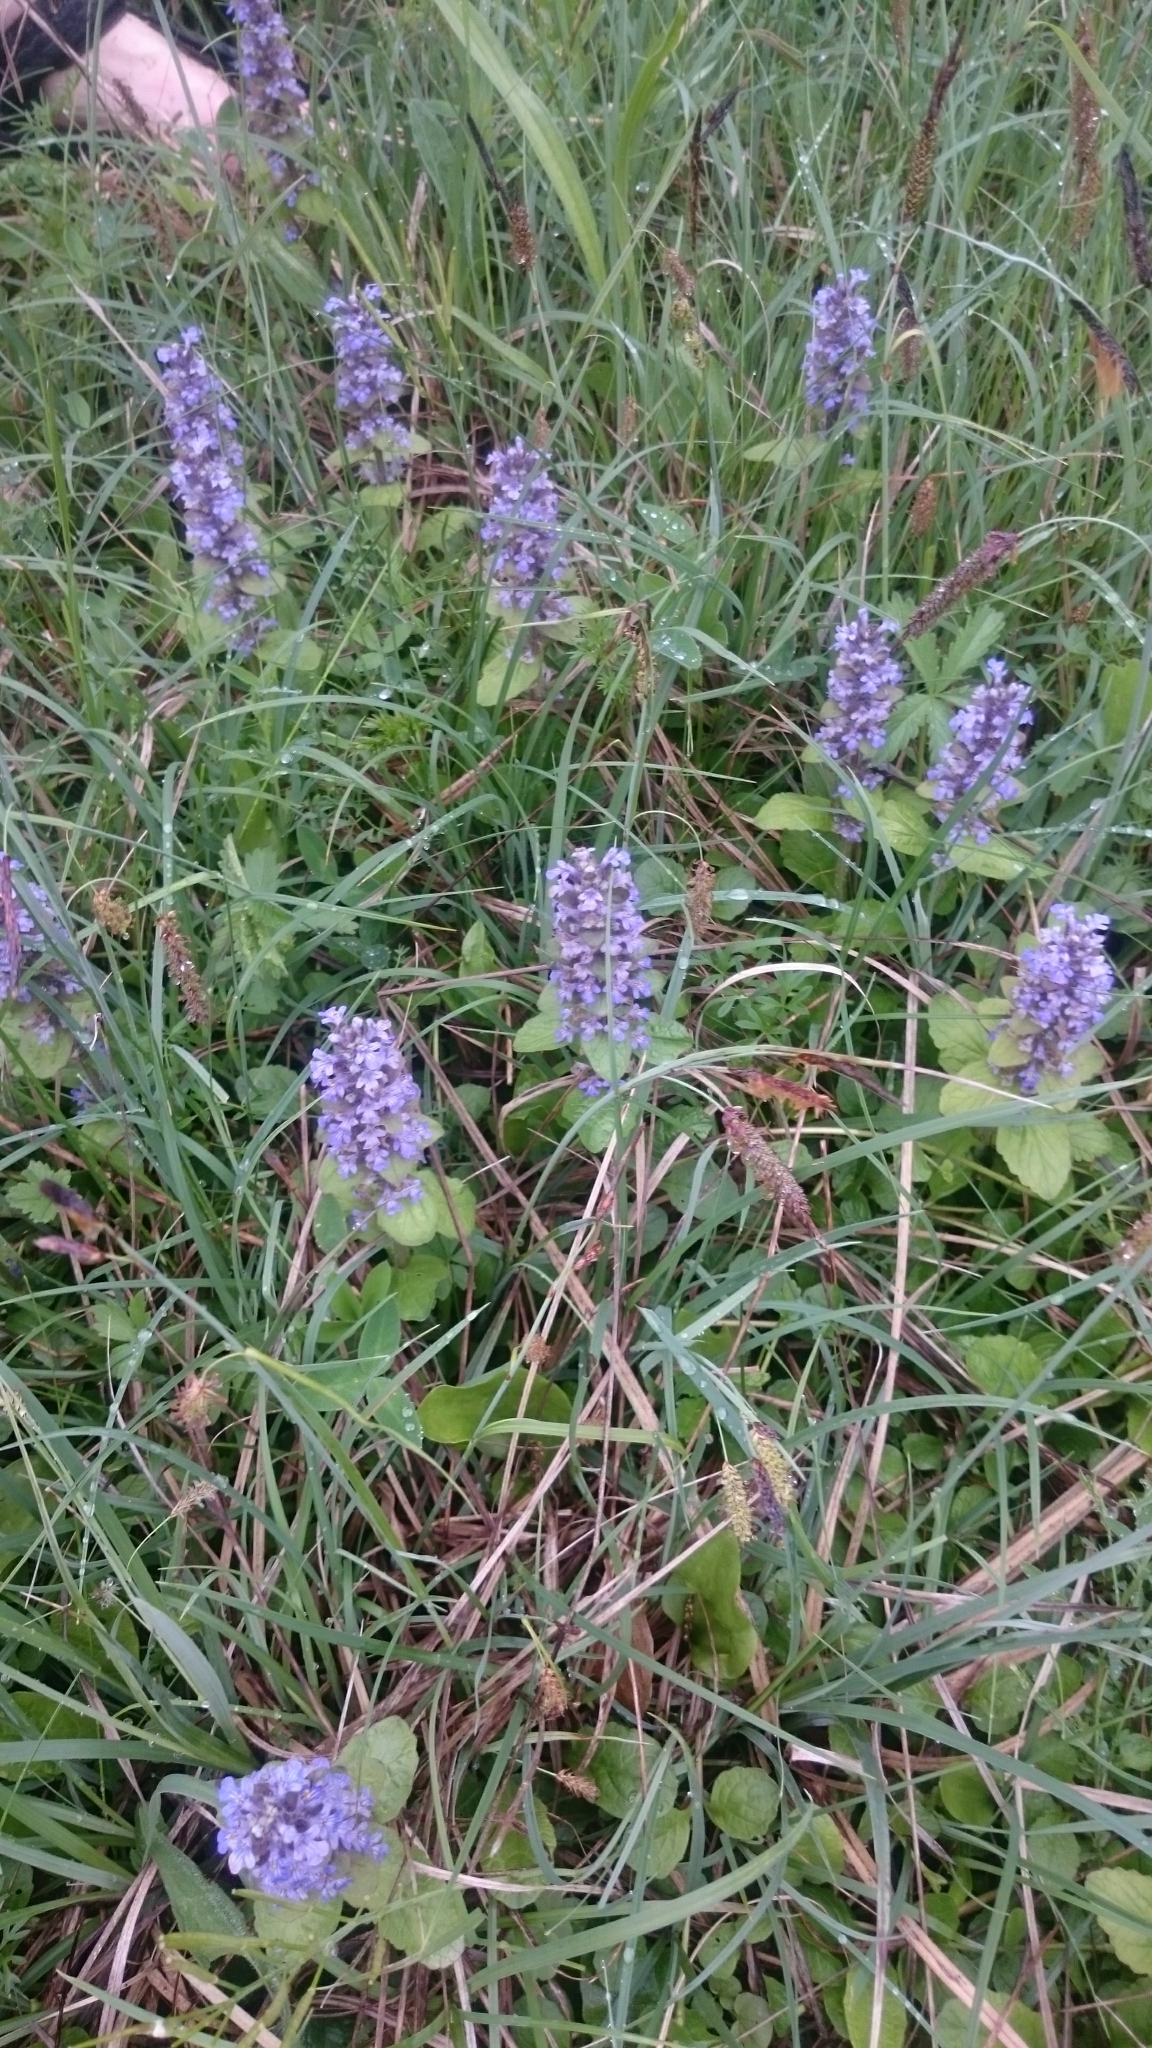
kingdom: Plantae
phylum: Tracheophyta
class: Magnoliopsida
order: Lamiales
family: Lamiaceae
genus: Ajuga
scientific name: Ajuga reptans
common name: Bugle
